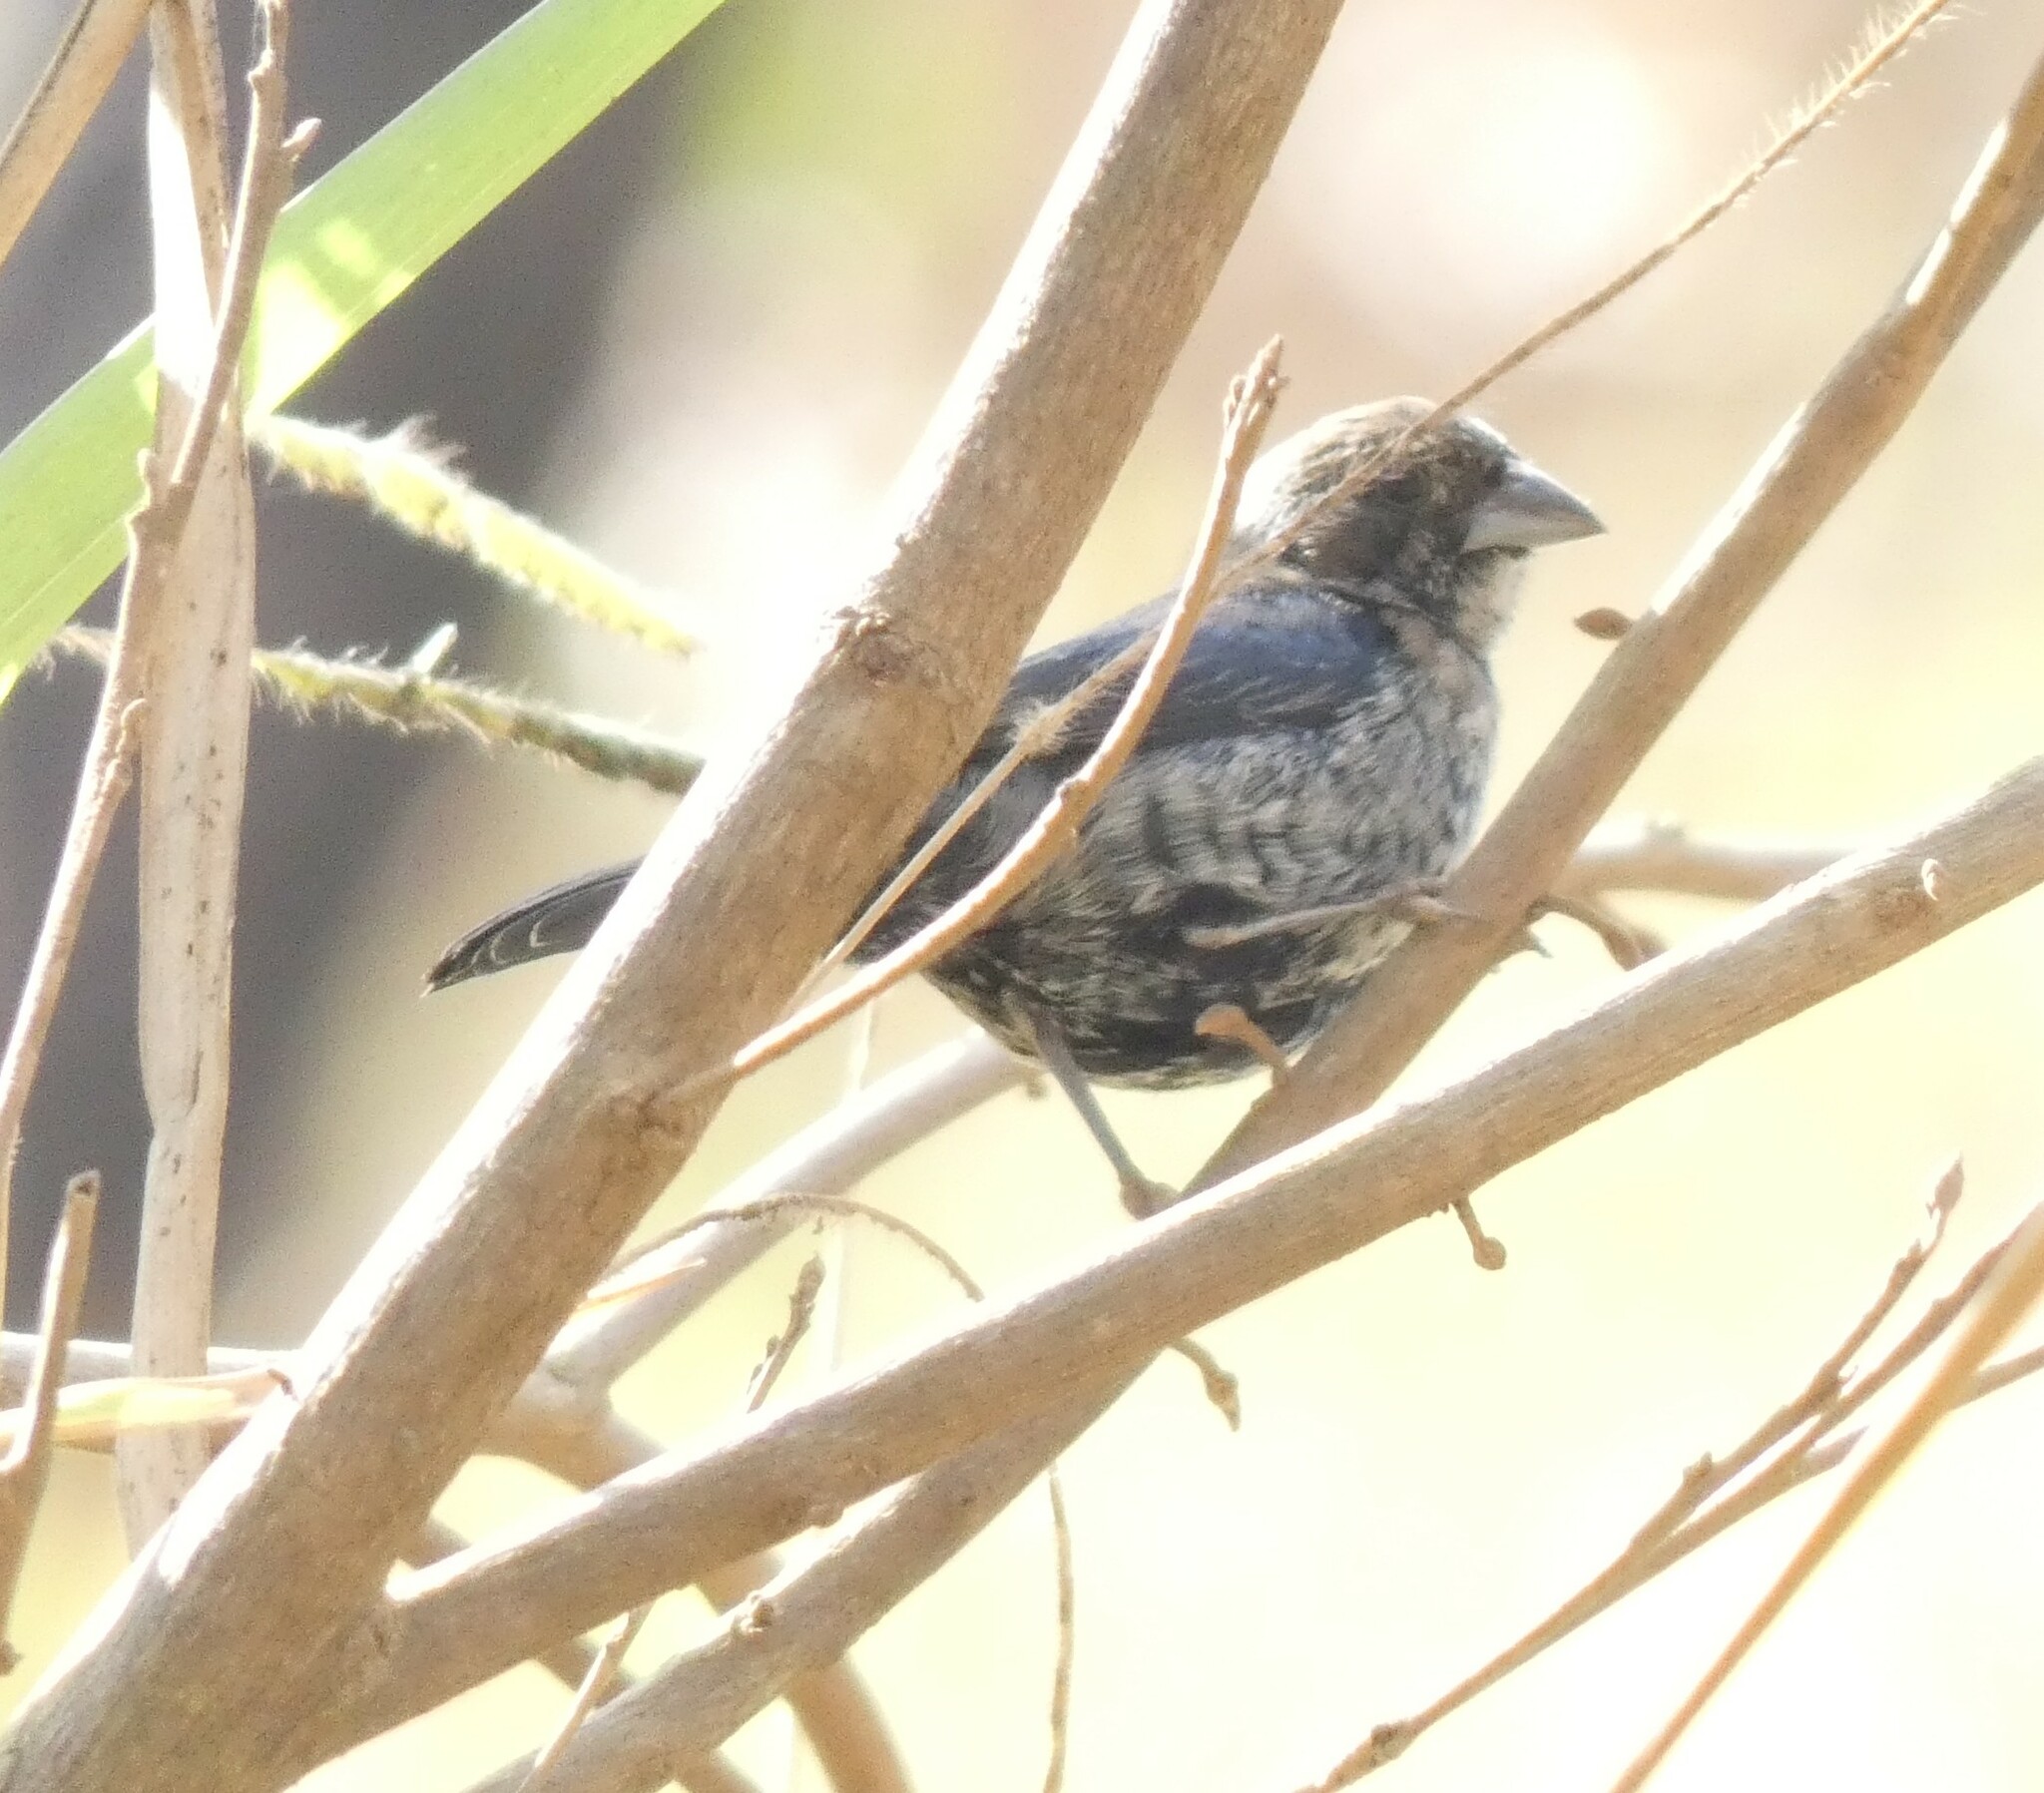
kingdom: Animalia
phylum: Chordata
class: Aves
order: Passeriformes
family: Thraupidae
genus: Volatinia
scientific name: Volatinia jacarina
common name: Blue-black grassquit
